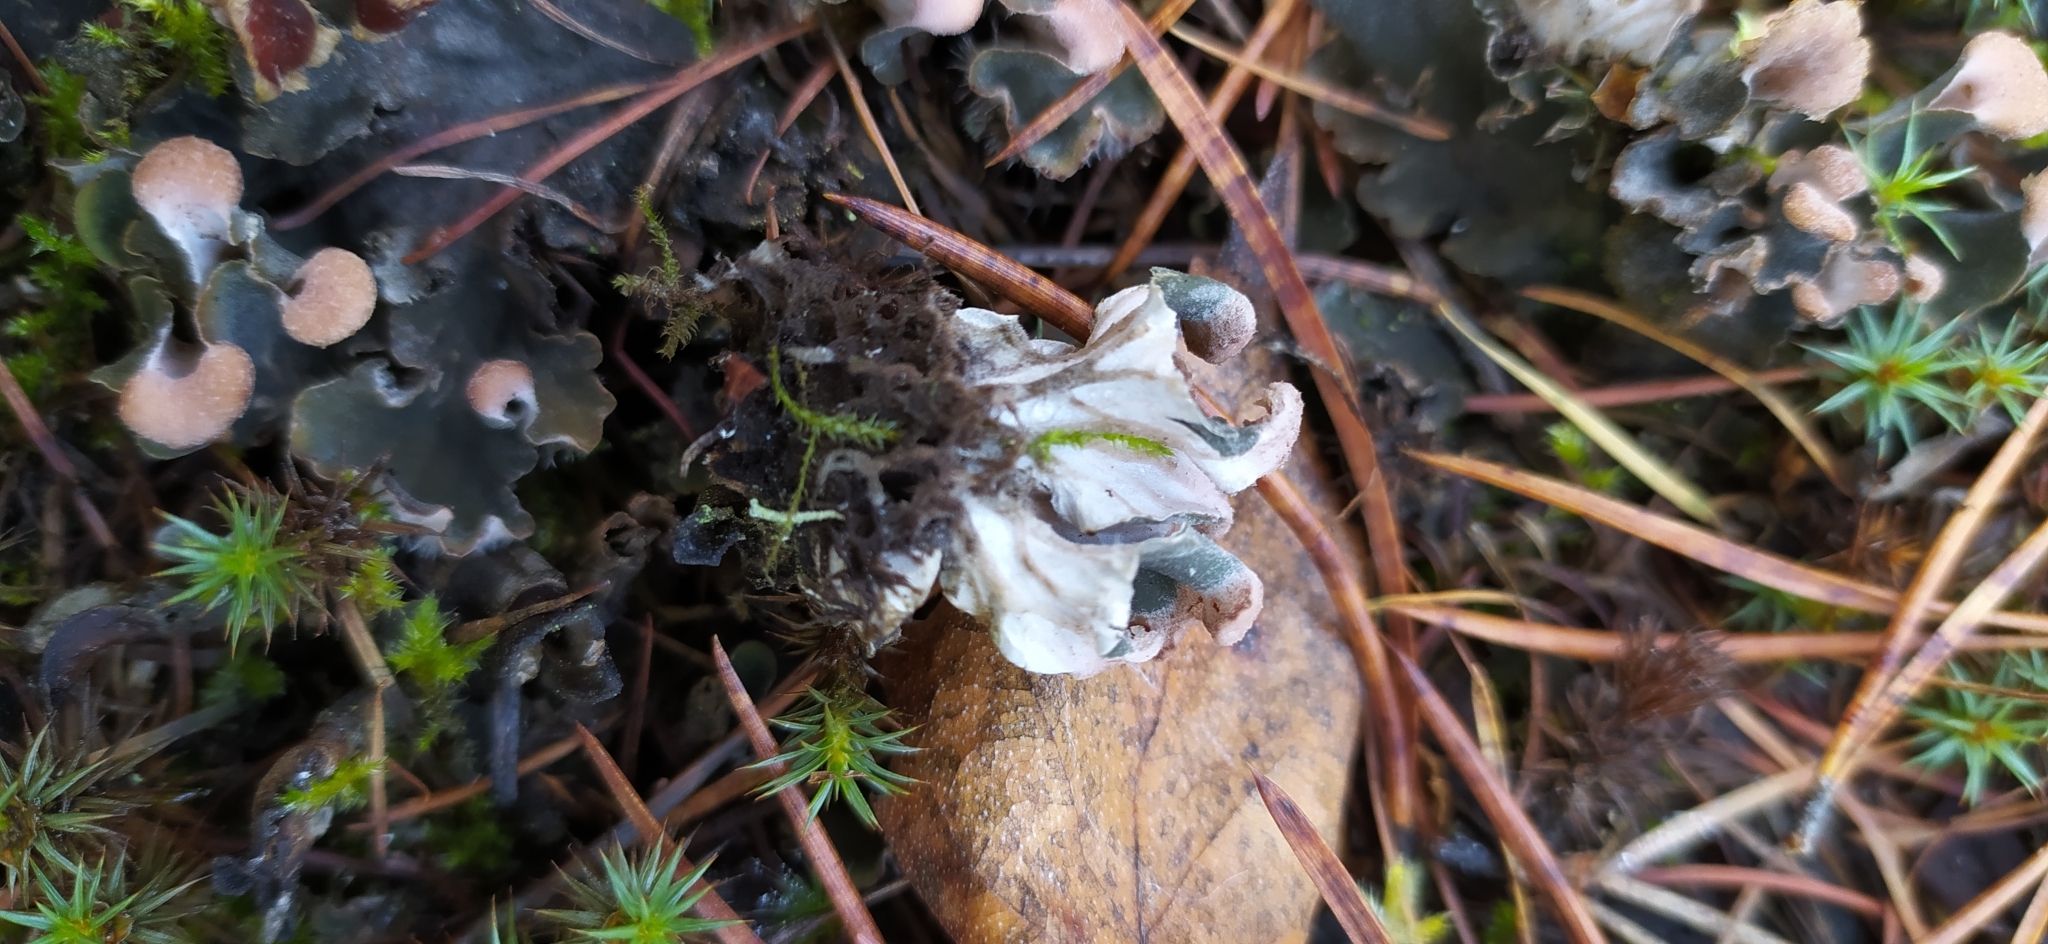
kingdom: Fungi
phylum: Ascomycota
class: Lecanoromycetes
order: Peltigerales
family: Peltigeraceae
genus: Peltigera
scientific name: Peltigera rufescens
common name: Field dog lichen
